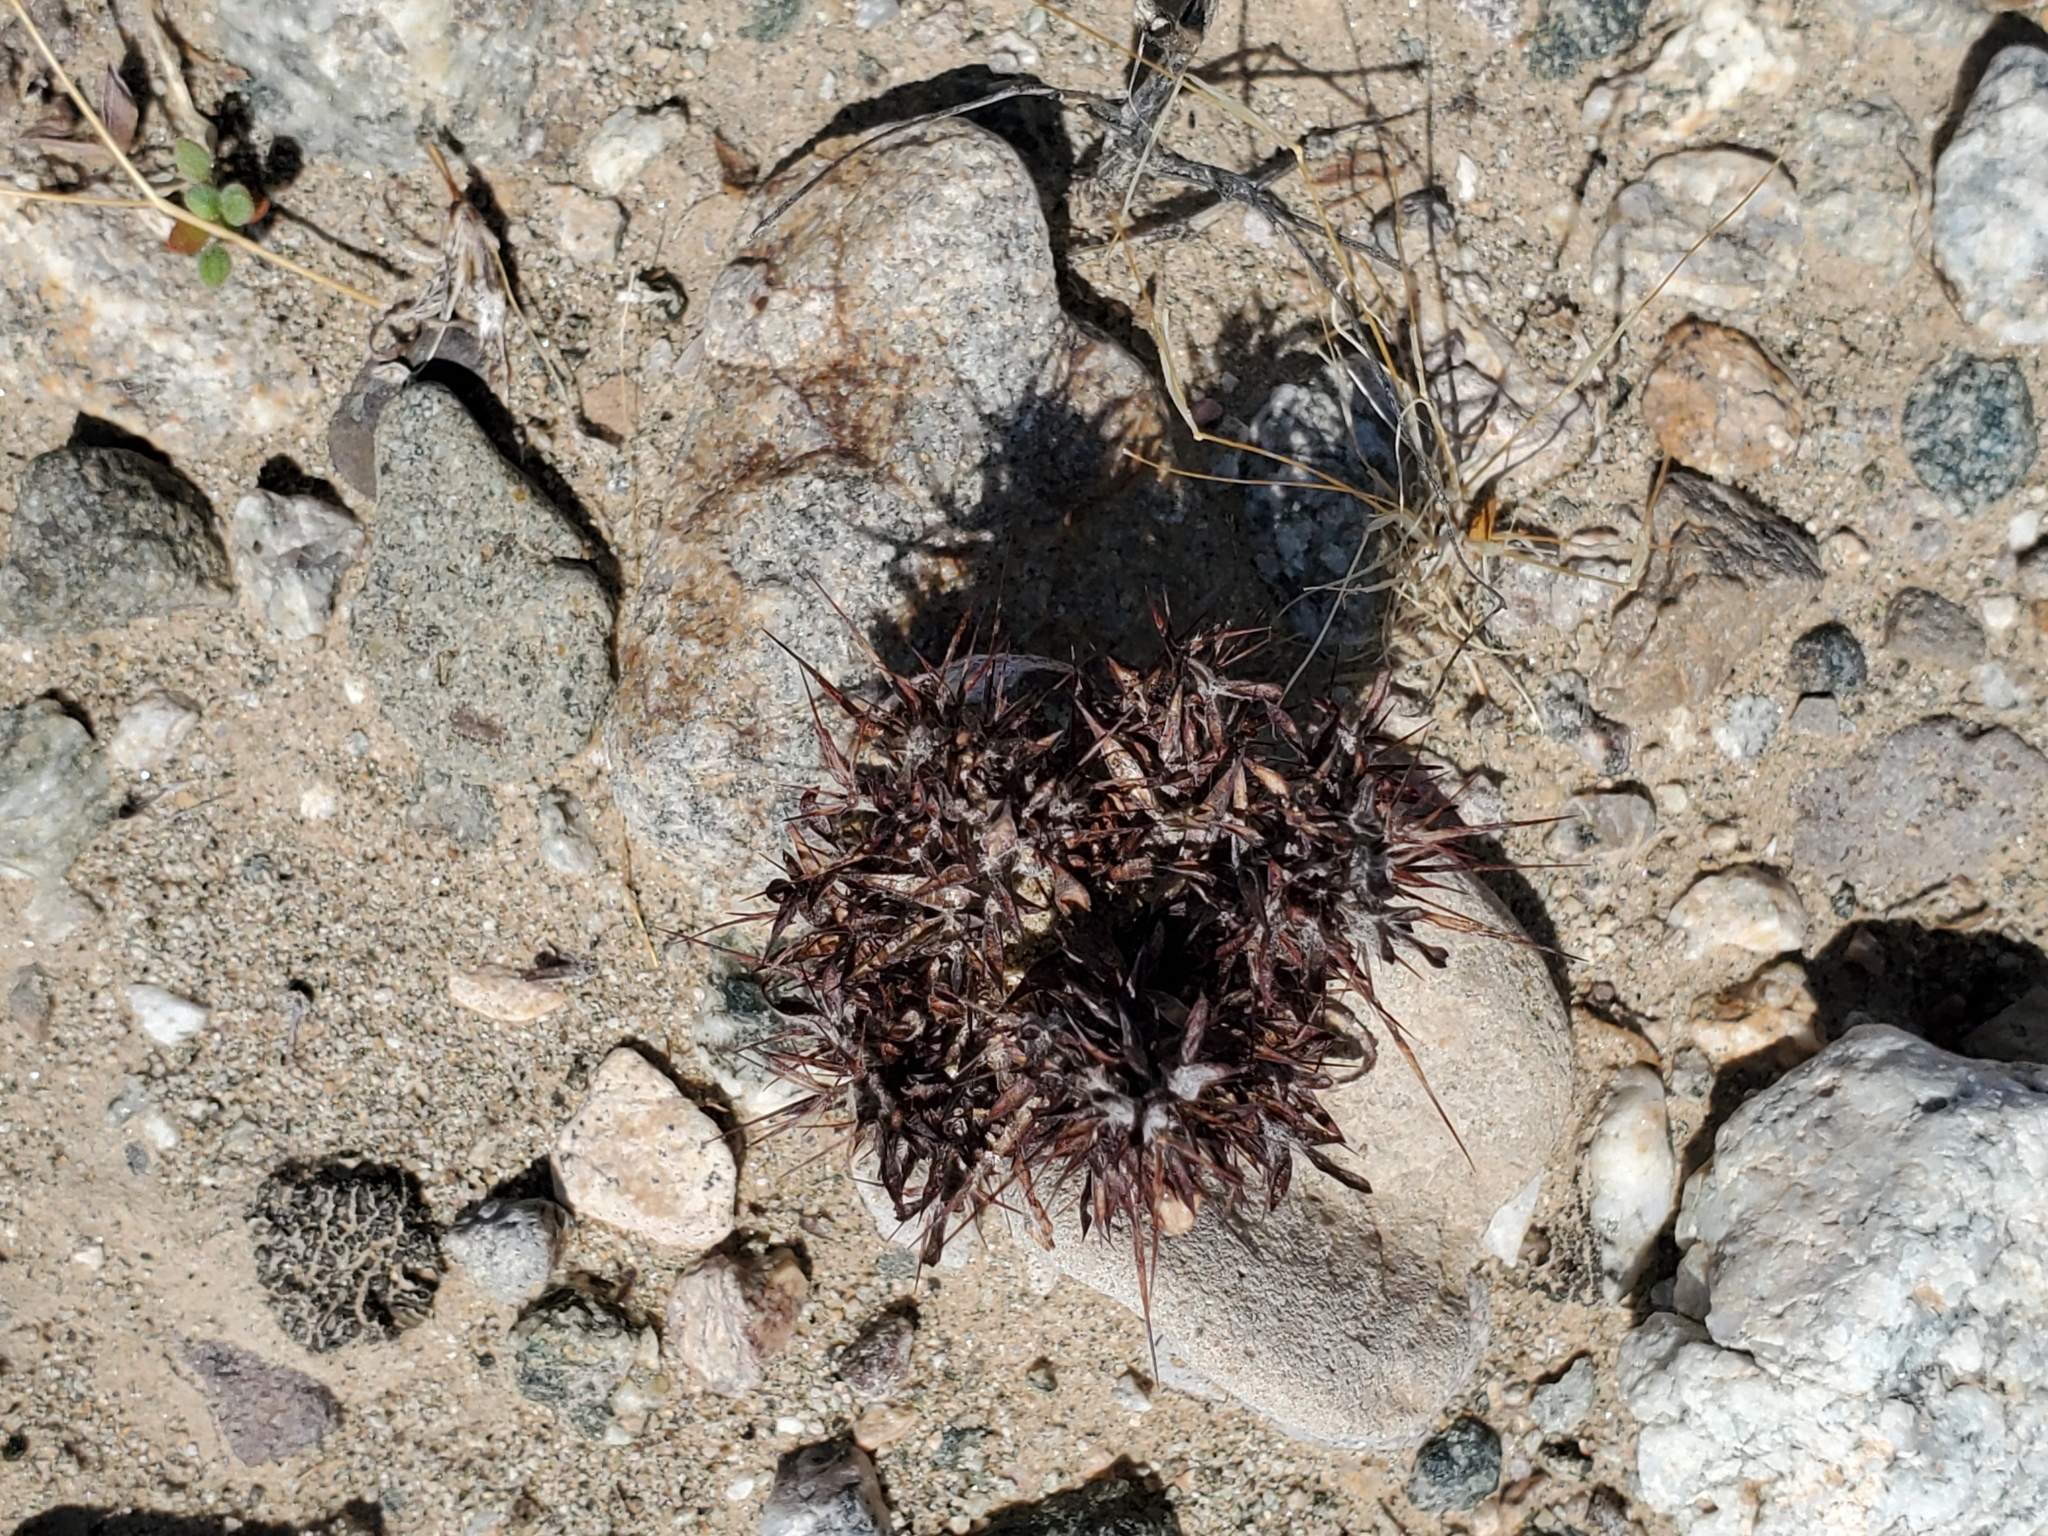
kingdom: Plantae
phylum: Tracheophyta
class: Magnoliopsida
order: Caryophyllales
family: Polygonaceae
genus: Chorizanthe
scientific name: Chorizanthe rigida
